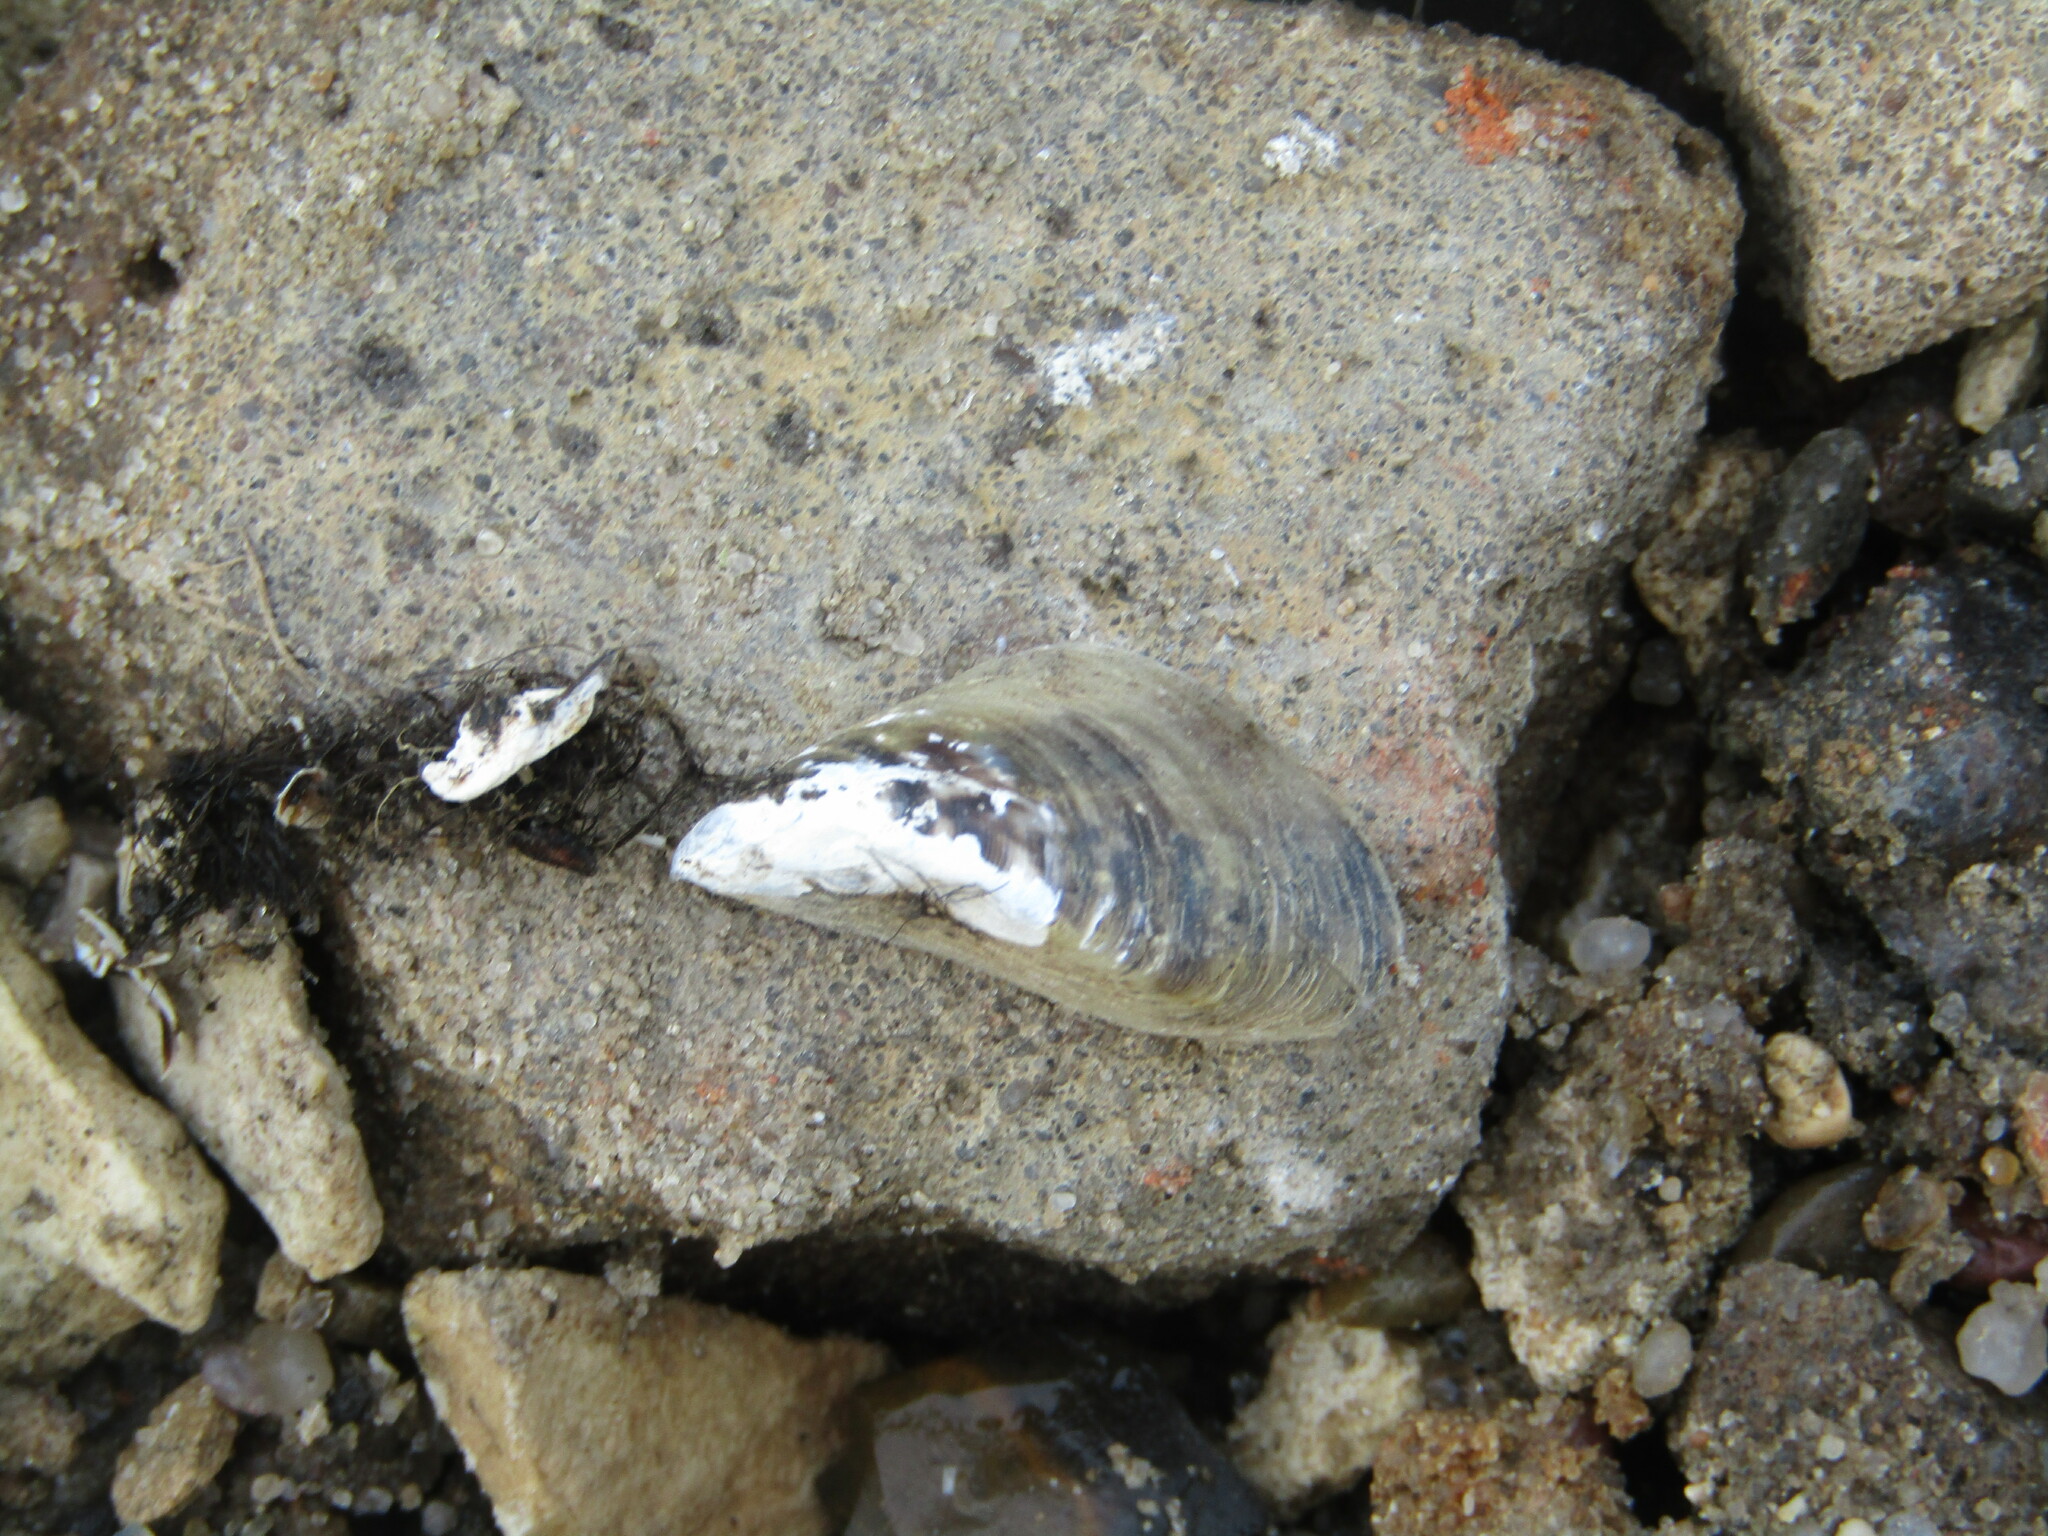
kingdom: Animalia
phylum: Mollusca
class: Bivalvia
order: Myida
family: Dreissenidae
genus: Dreissena
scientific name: Dreissena polymorpha
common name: Zebra mussel
